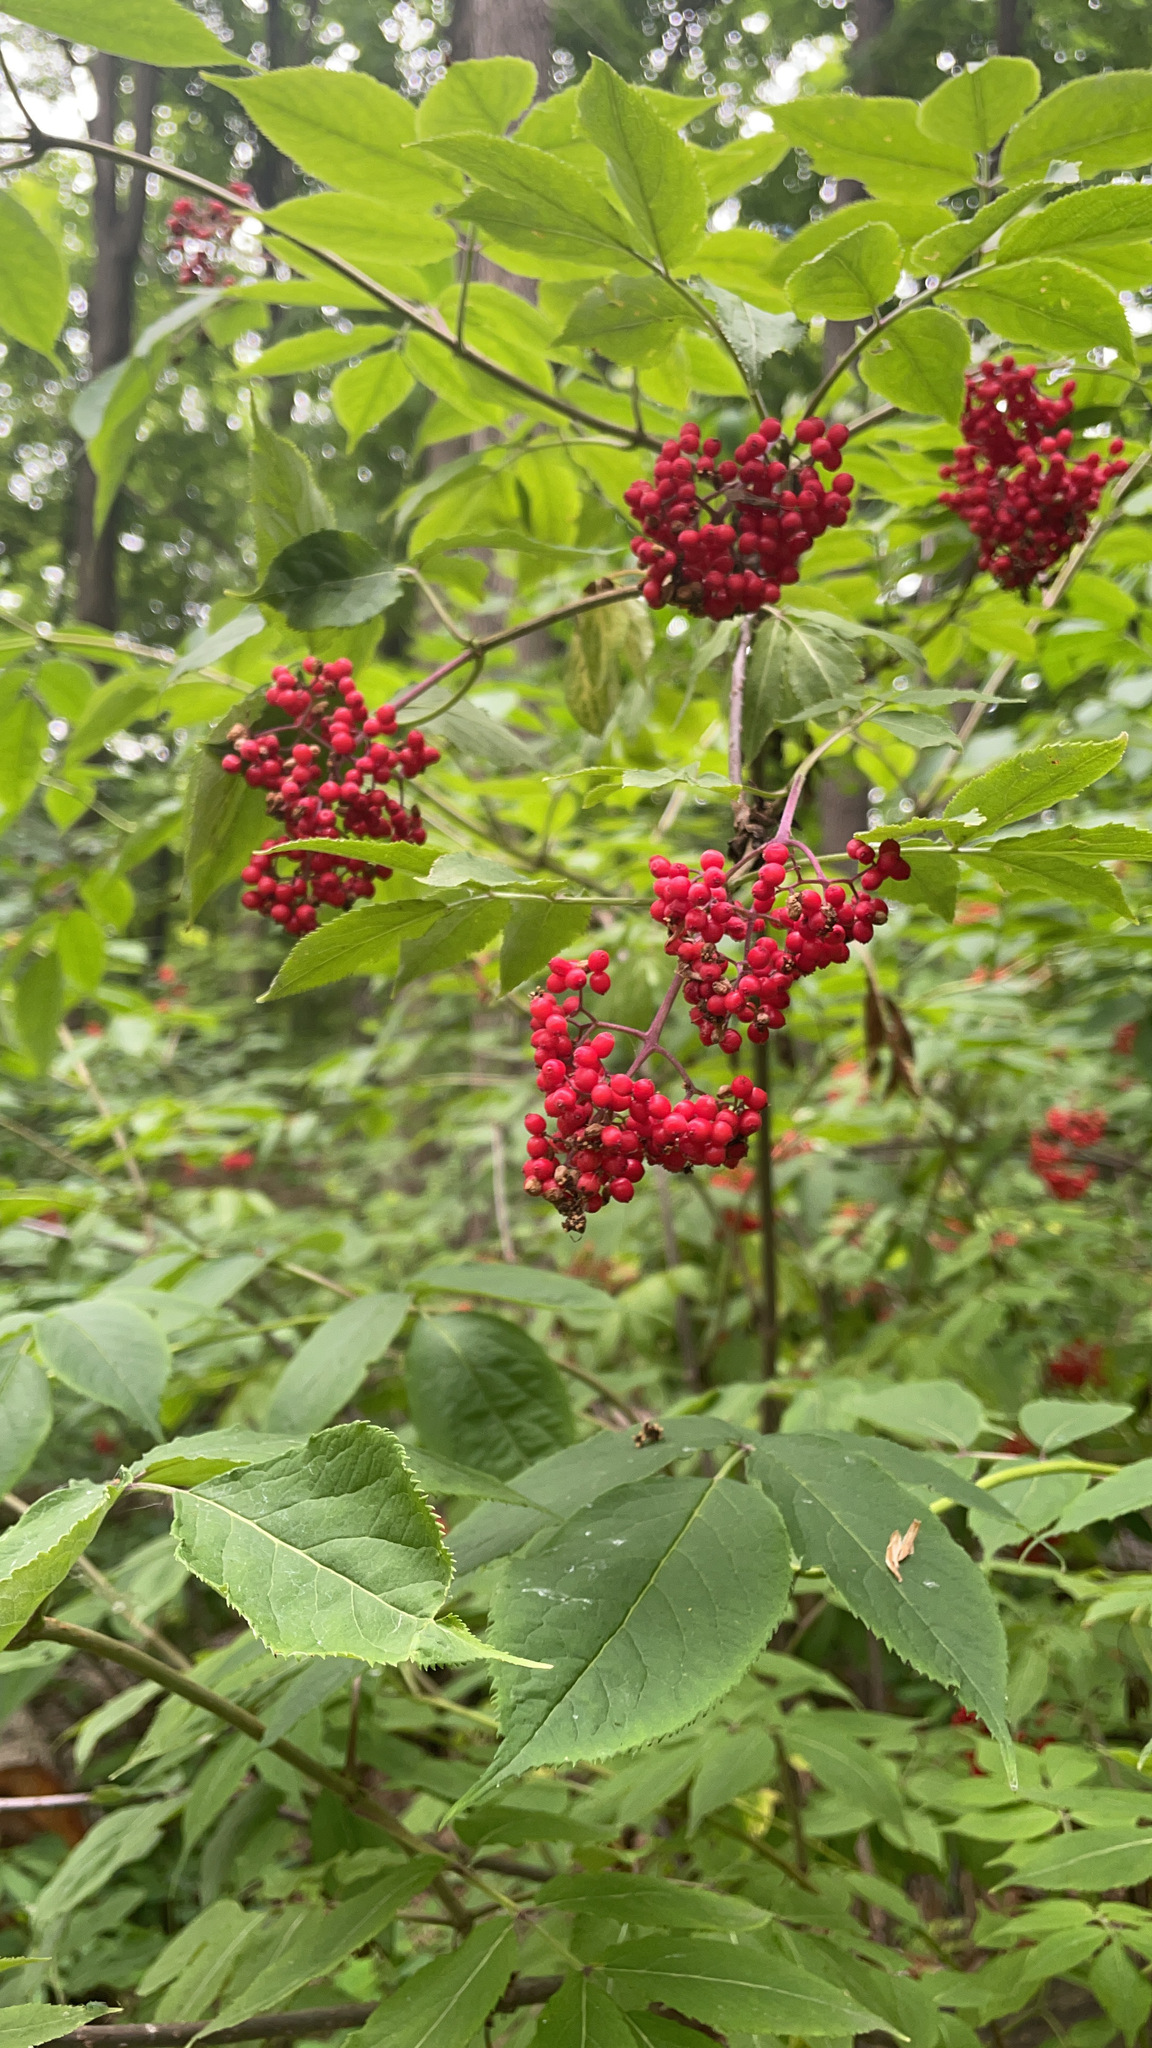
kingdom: Plantae
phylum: Tracheophyta
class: Magnoliopsida
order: Dipsacales
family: Viburnaceae
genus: Sambucus
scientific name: Sambucus racemosa
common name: Red-berried elder
